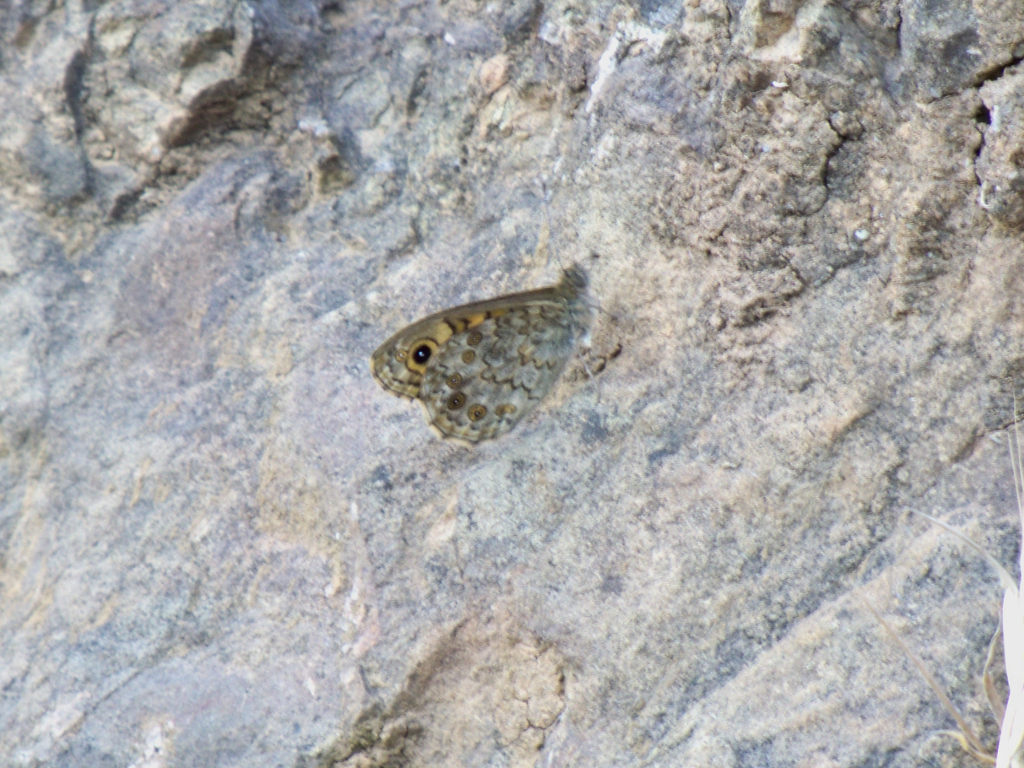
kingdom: Animalia
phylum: Arthropoda
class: Insecta
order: Lepidoptera
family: Nymphalidae
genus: Pararge
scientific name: Pararge Lasiommata megera
